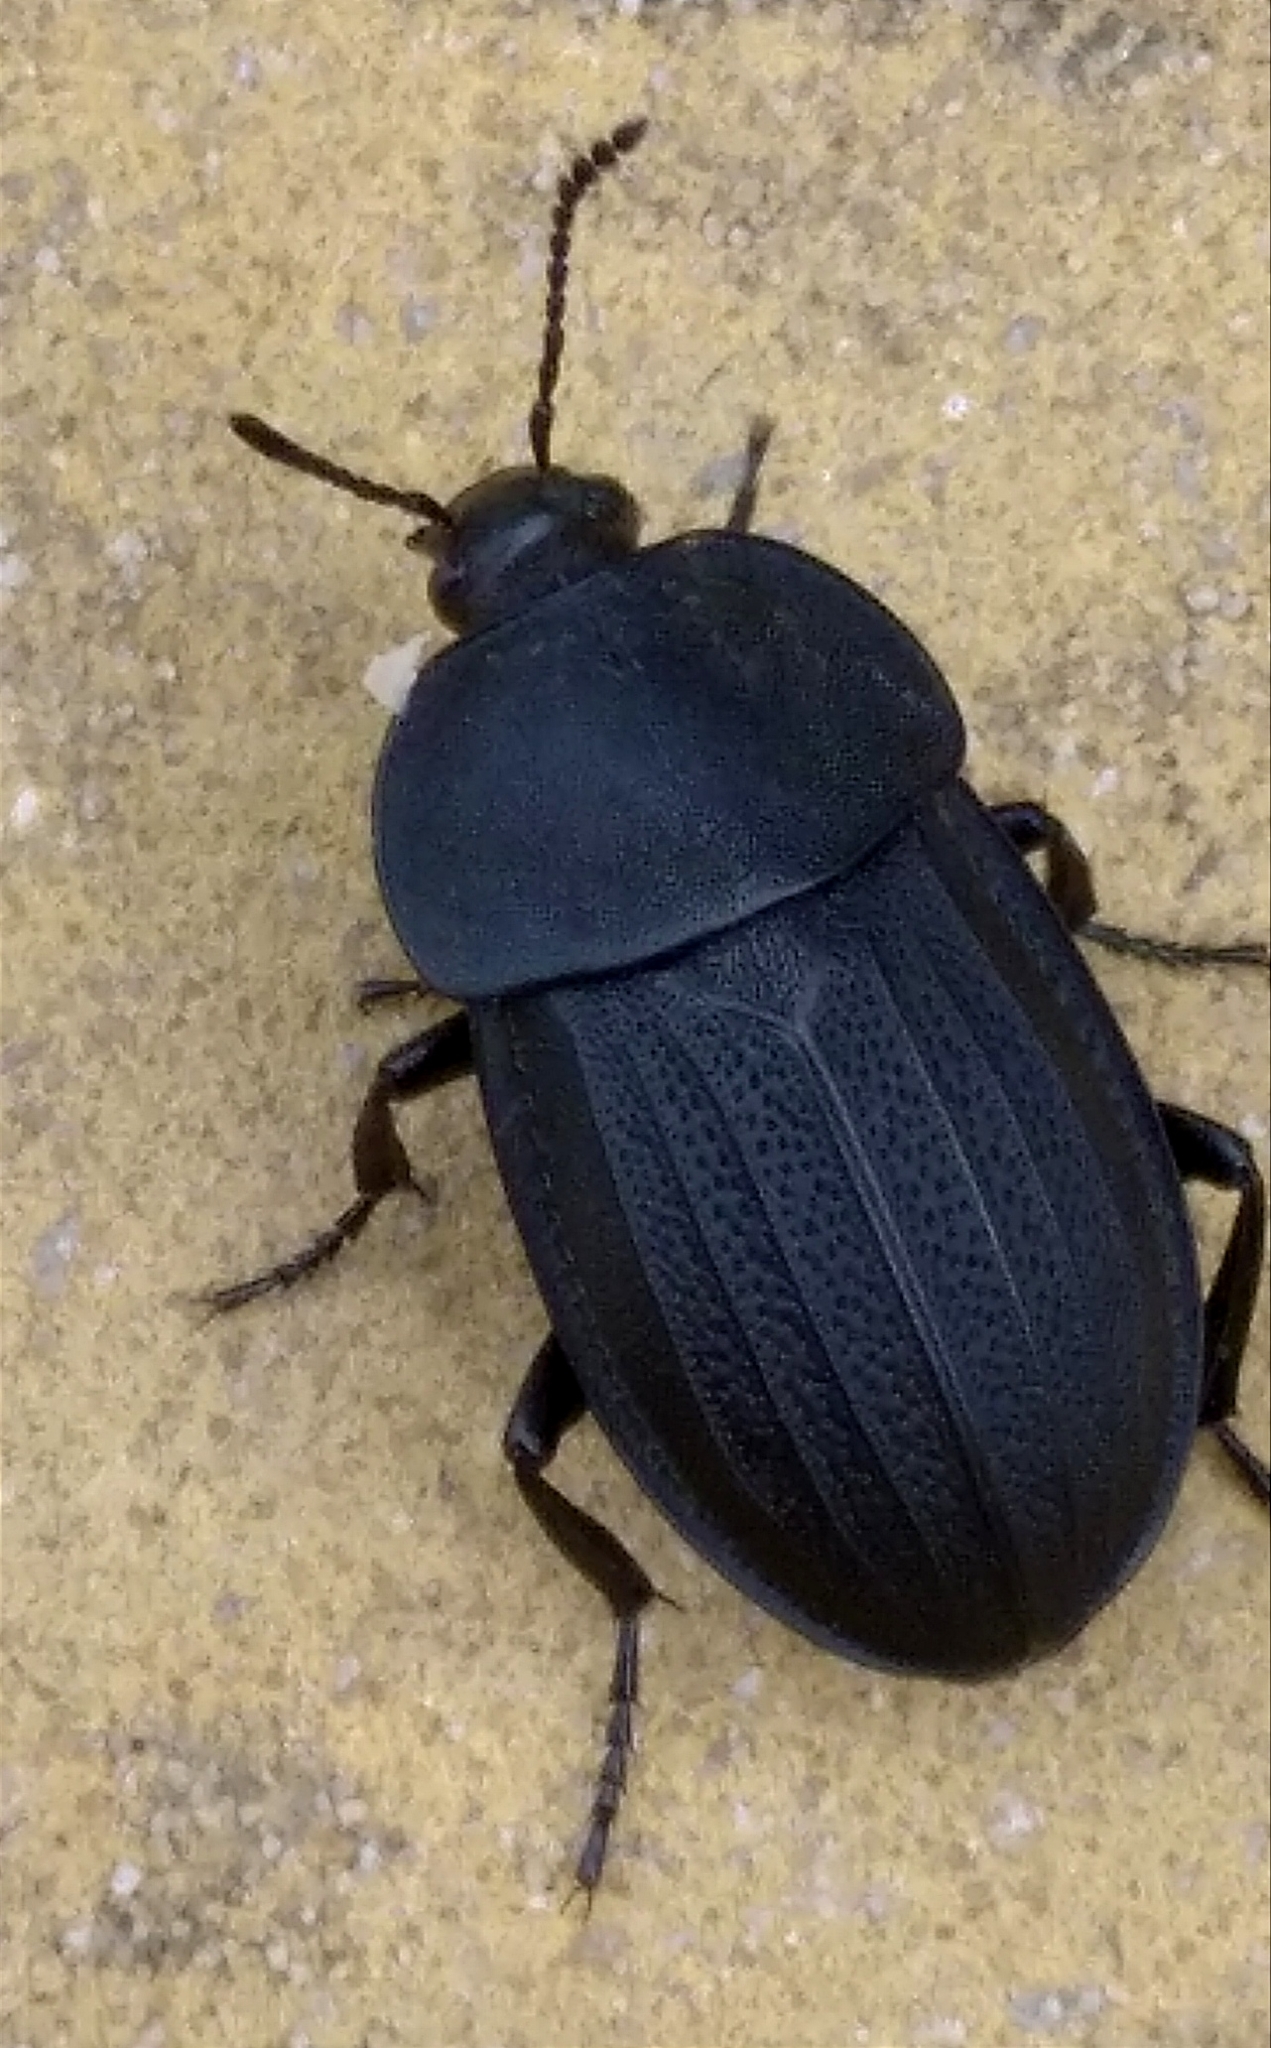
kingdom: Animalia
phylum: Arthropoda
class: Insecta
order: Coleoptera
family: Staphylinidae
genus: Silpha
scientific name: Silpha obscura
